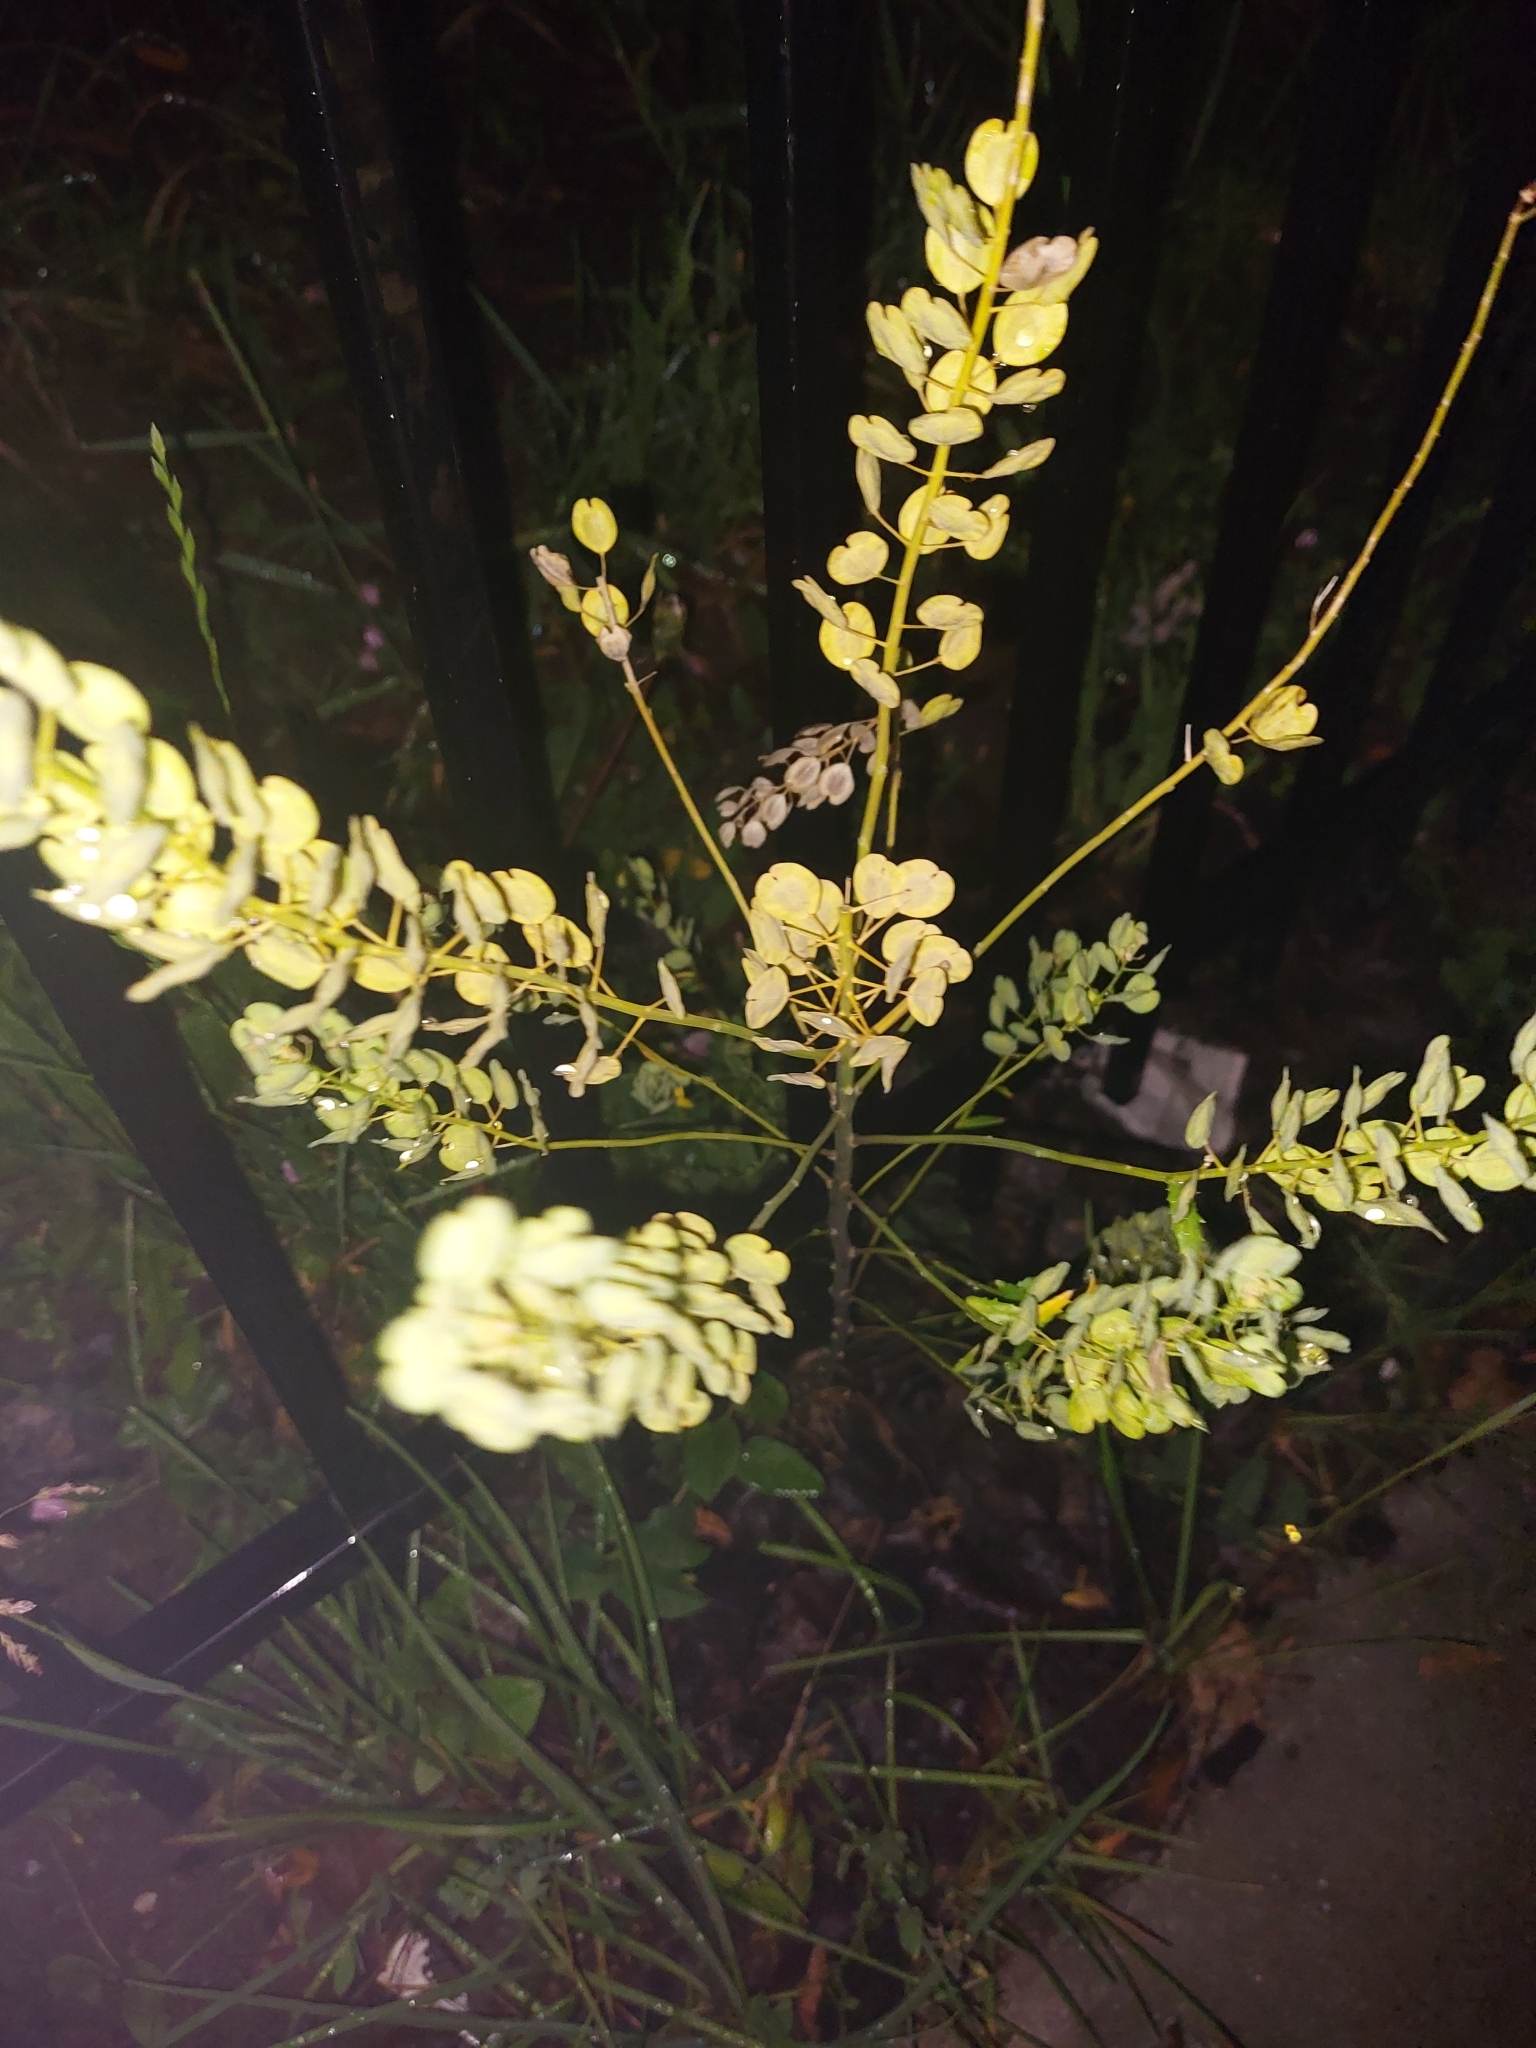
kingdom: Plantae
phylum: Tracheophyta
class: Magnoliopsida
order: Brassicales
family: Brassicaceae
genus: Thlaspi
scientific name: Thlaspi arvense
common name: Field pennycress
